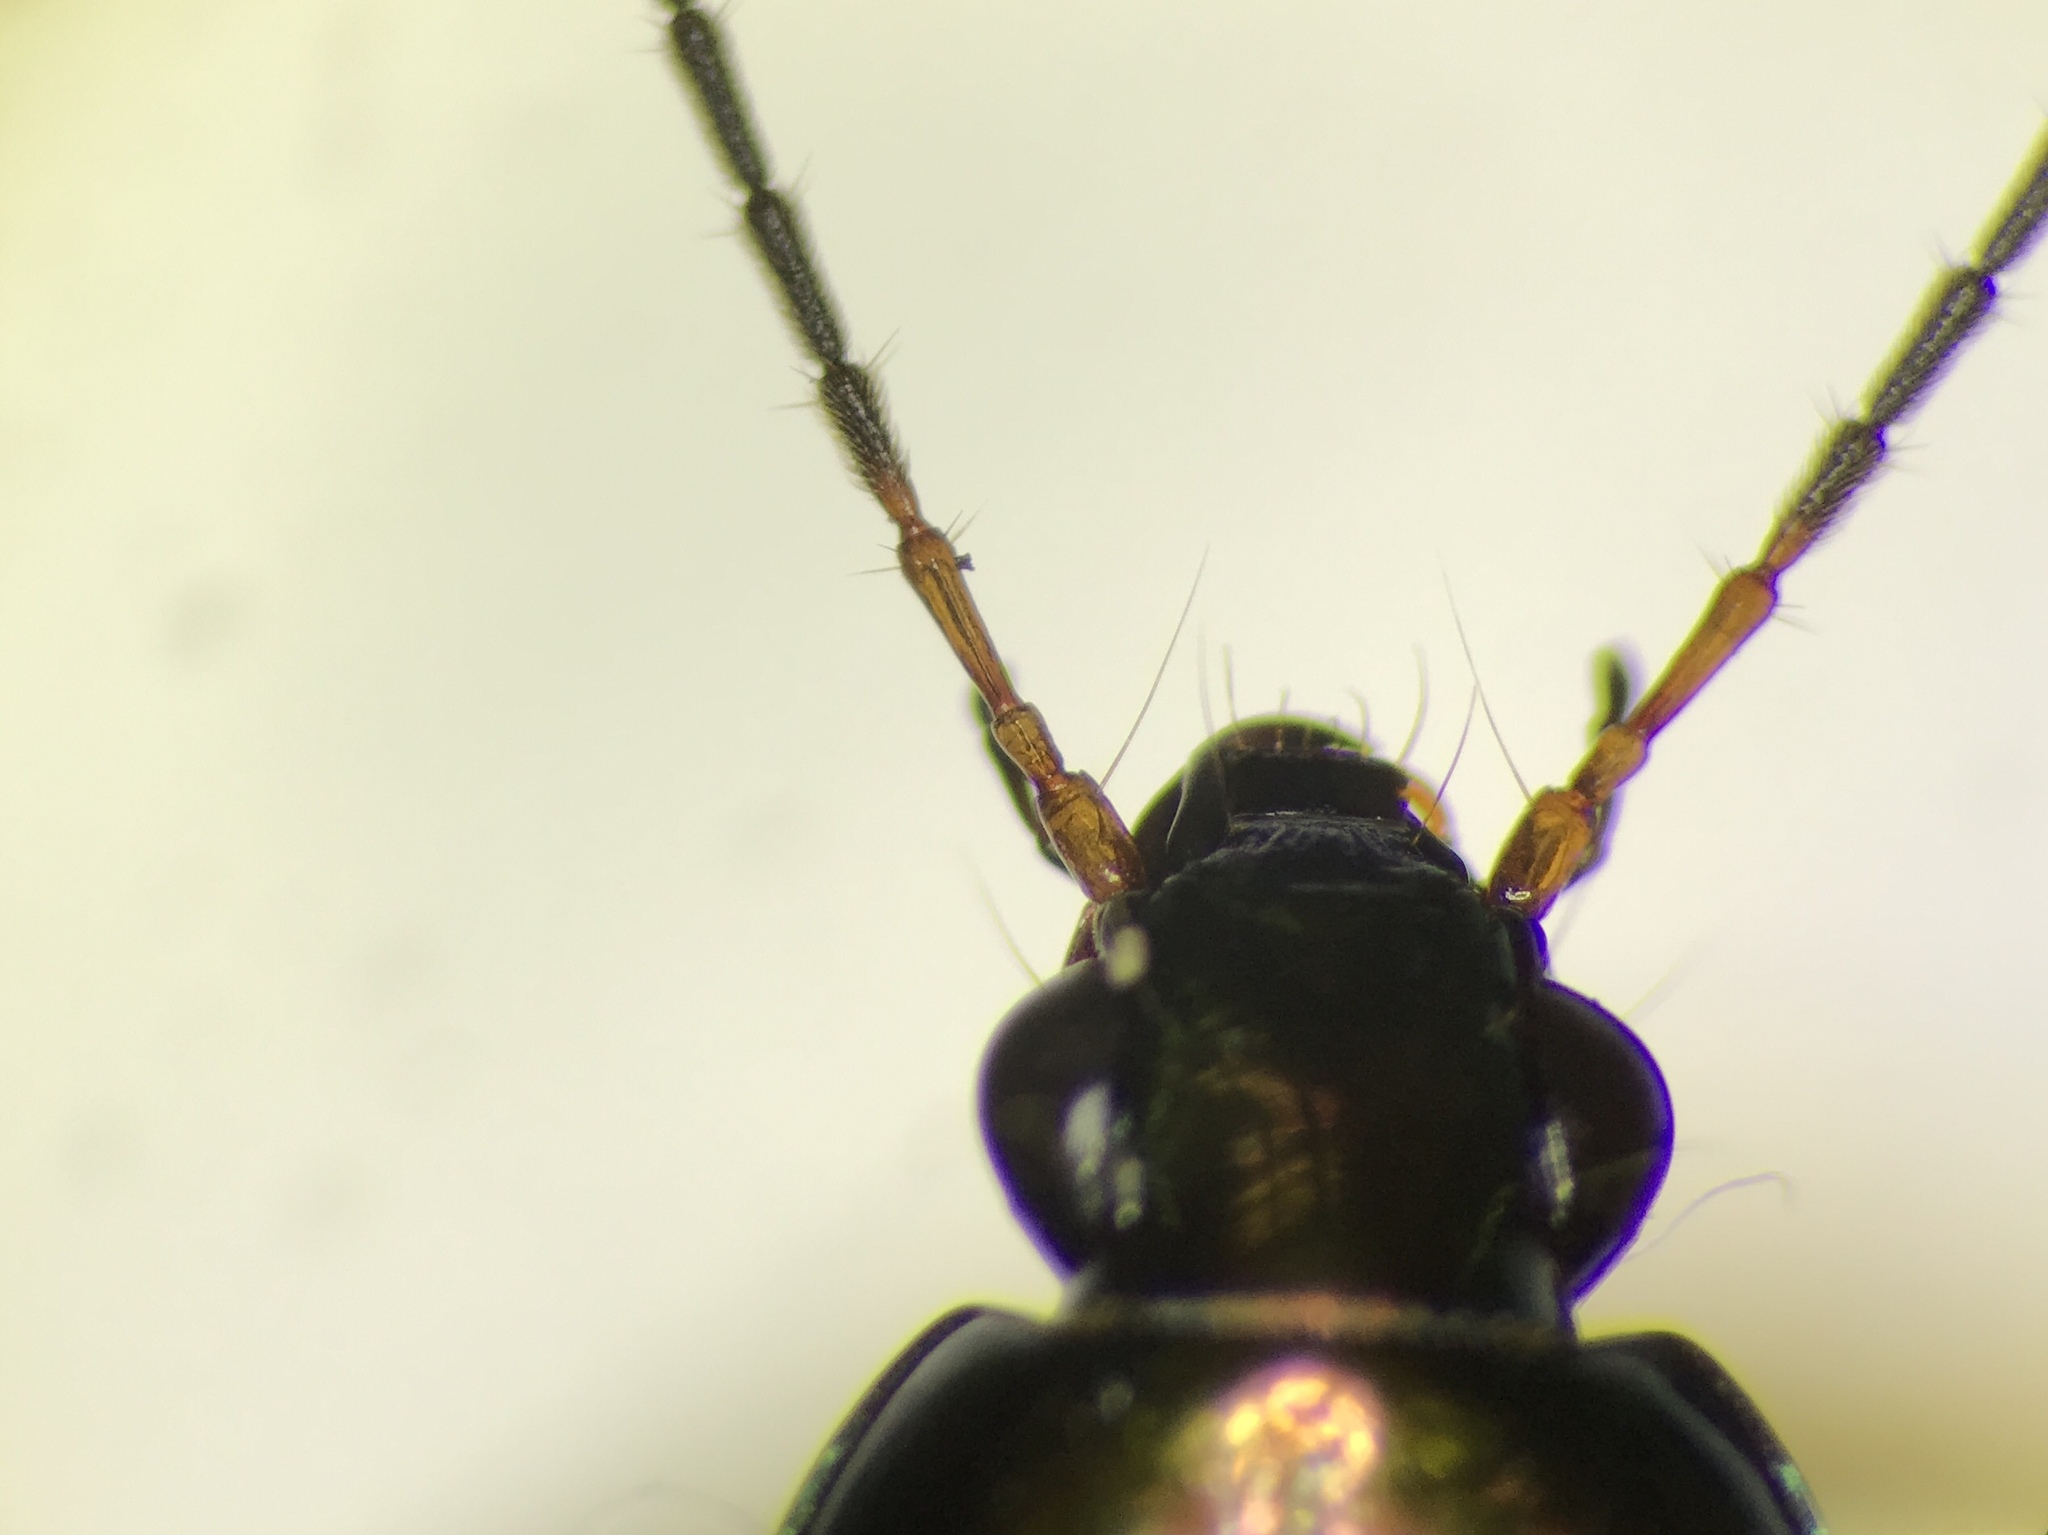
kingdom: Animalia
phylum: Arthropoda
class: Insecta
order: Coleoptera
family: Carabidae
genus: Poecilus
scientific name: Poecilus chalcites
